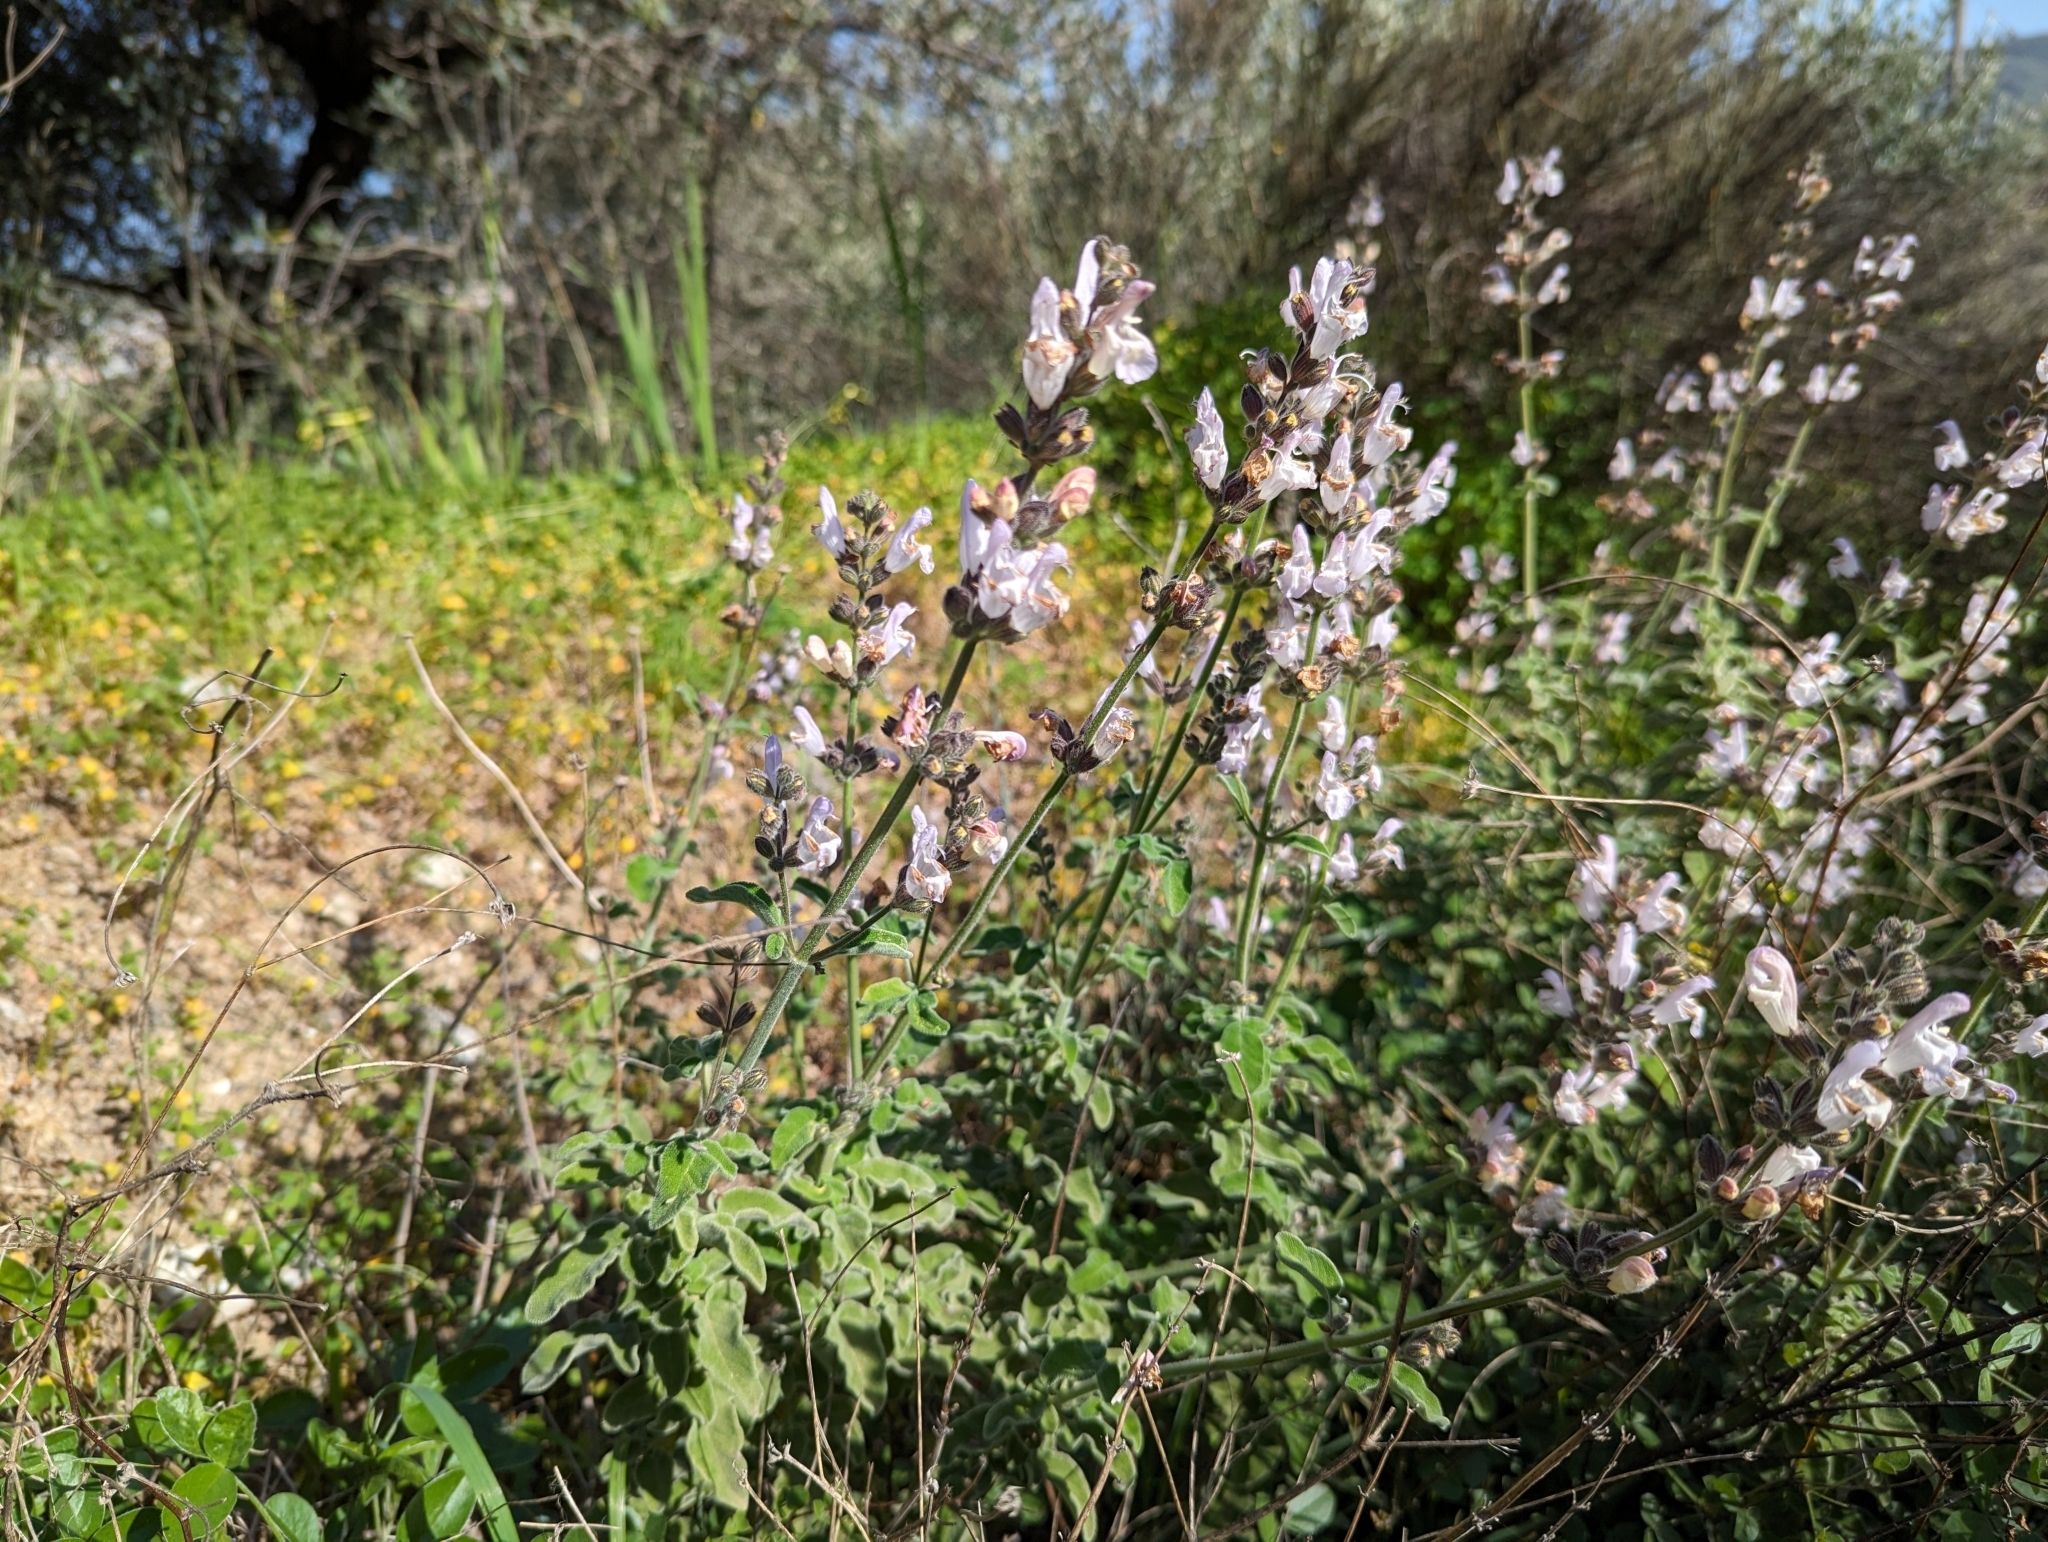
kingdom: Plantae
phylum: Tracheophyta
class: Magnoliopsida
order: Lamiales
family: Lamiaceae
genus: Salvia
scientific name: Salvia fruticosa
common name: Greek sage
